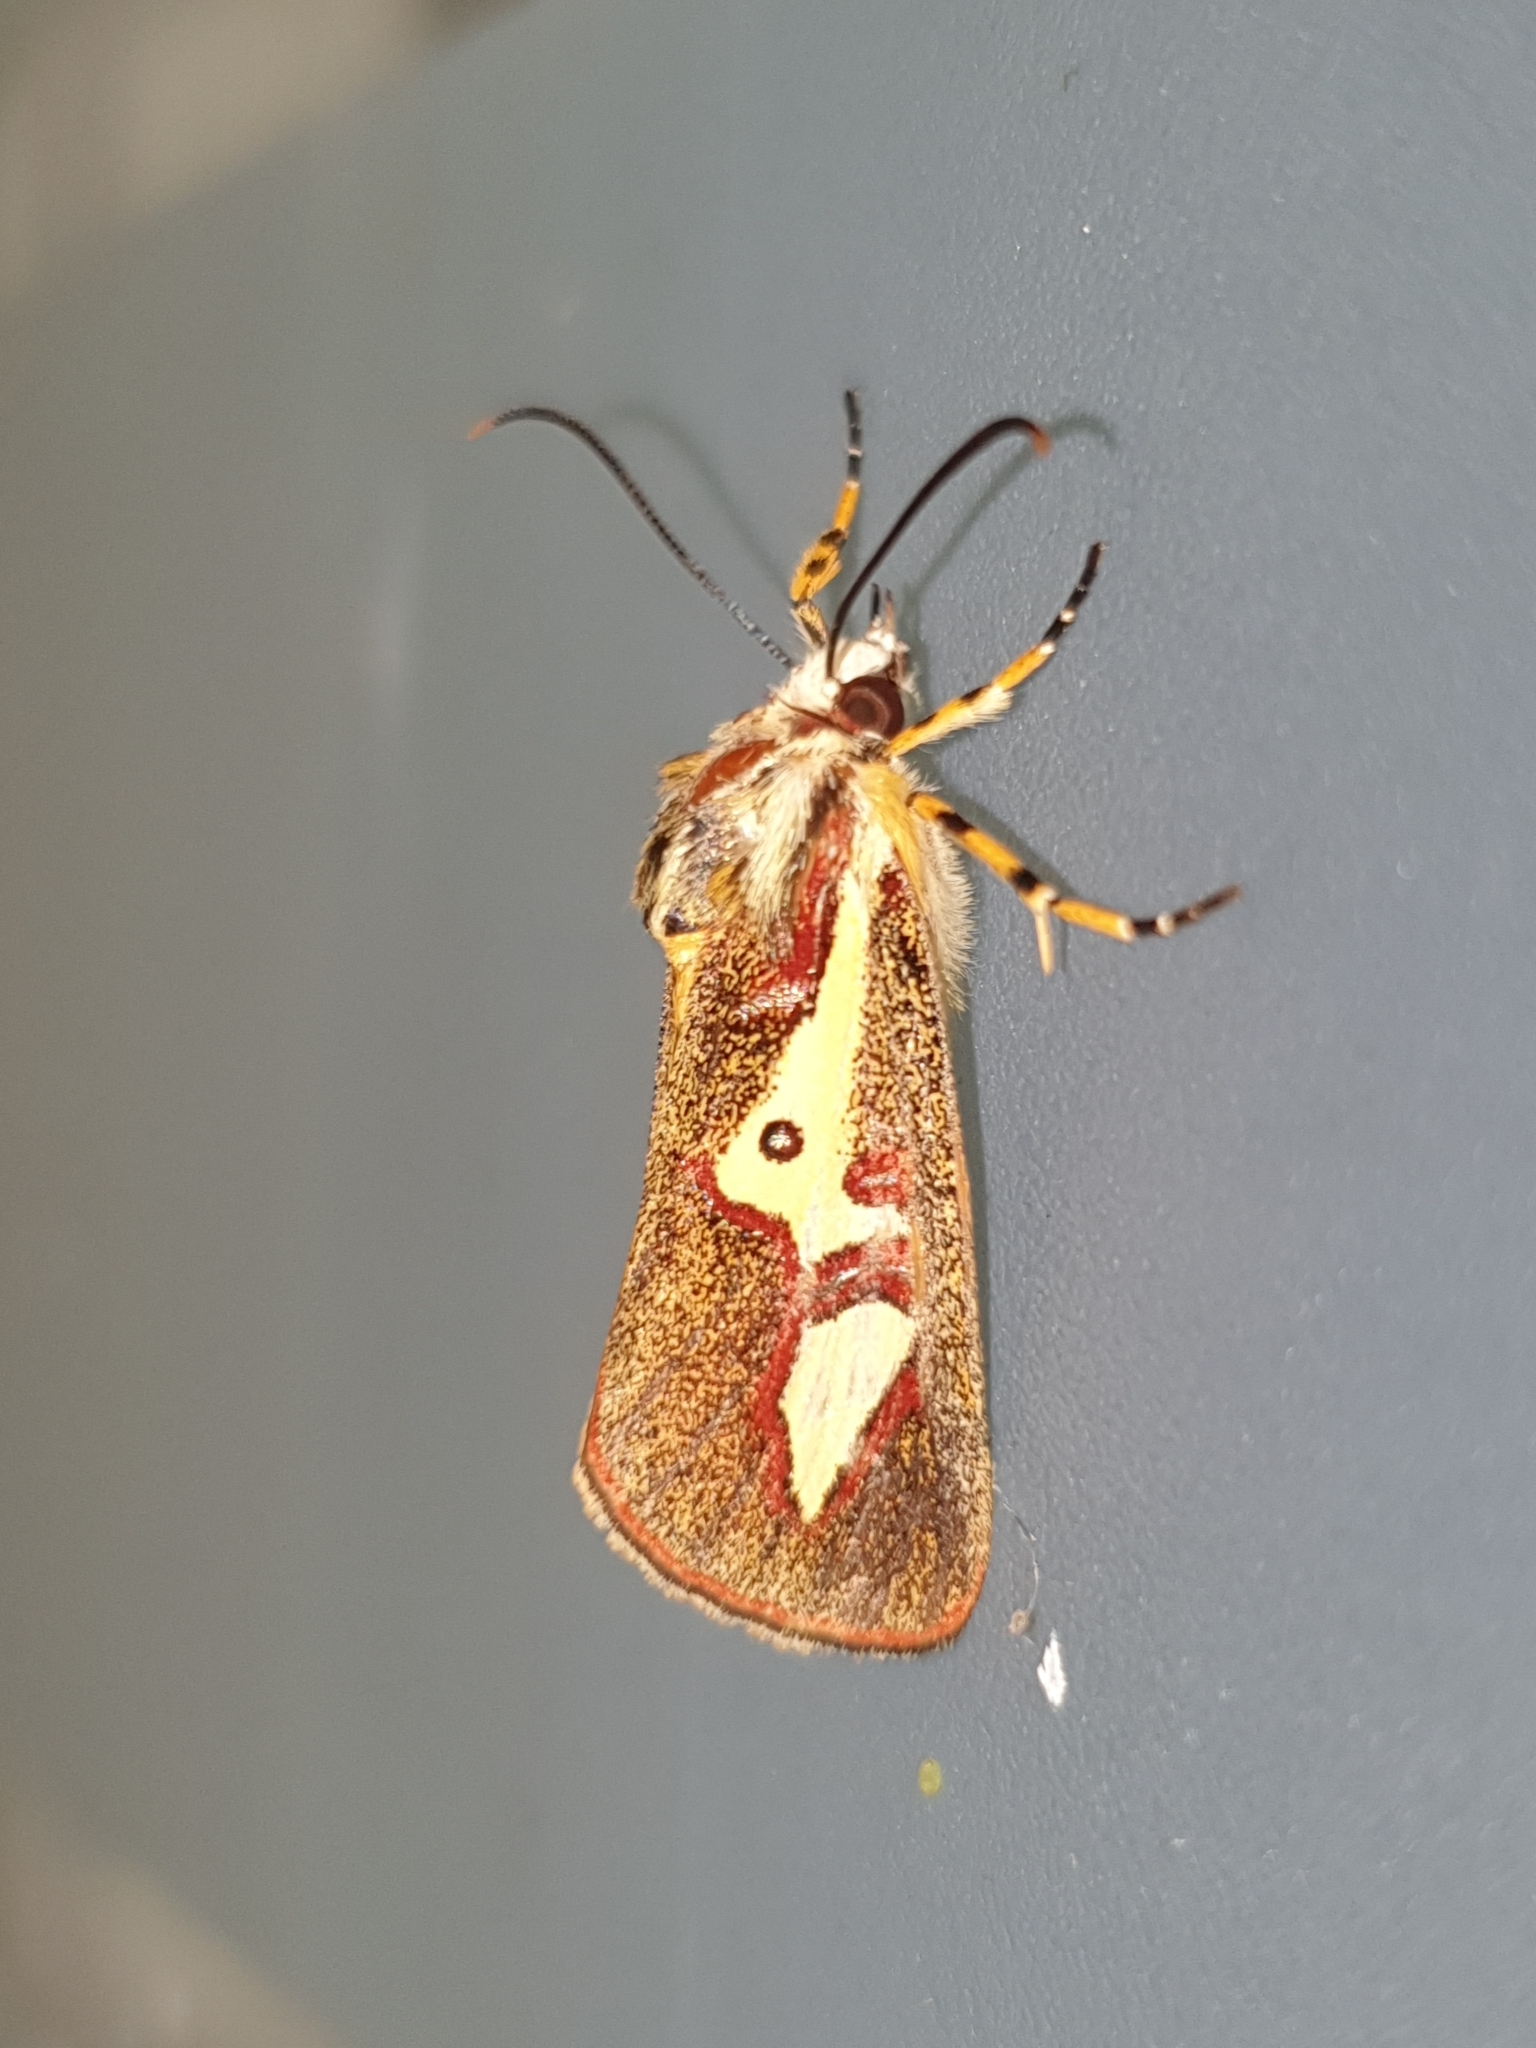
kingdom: Animalia
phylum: Arthropoda
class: Insecta
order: Lepidoptera
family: Noctuidae
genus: Aegocera
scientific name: Aegocera venulia
